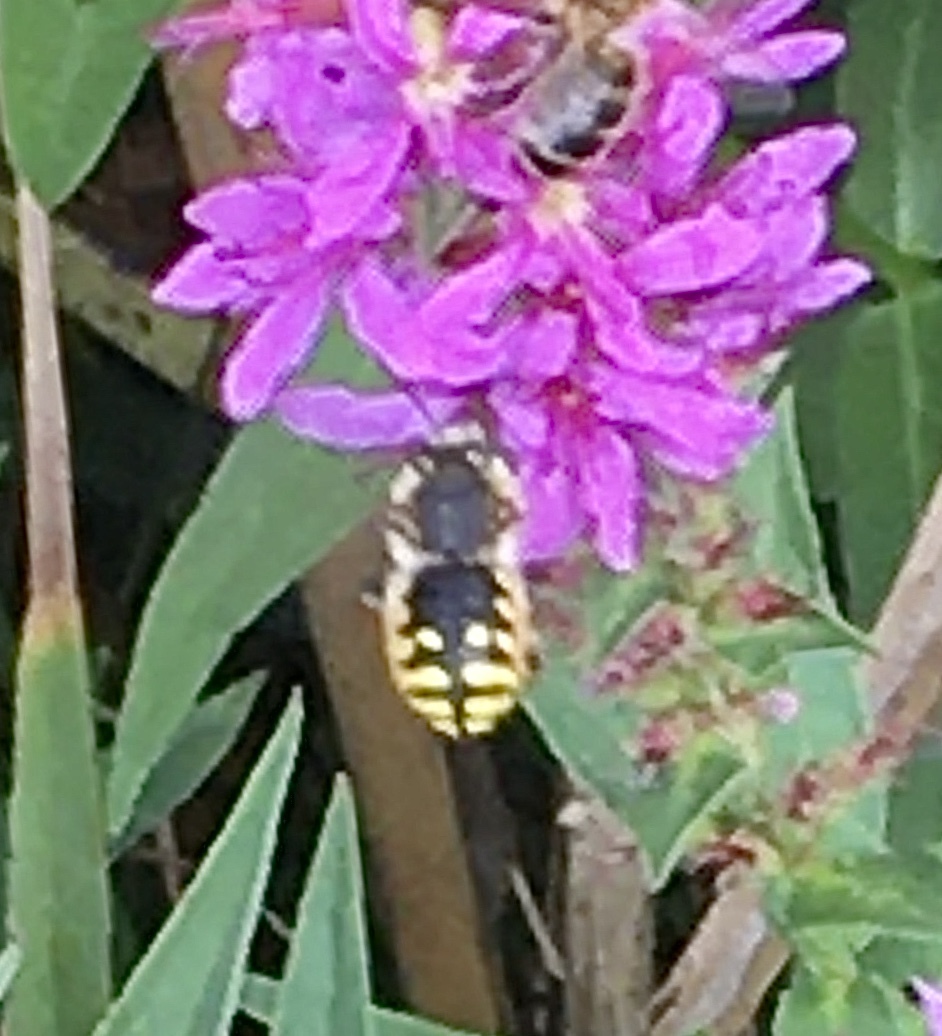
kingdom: Animalia
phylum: Arthropoda
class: Insecta
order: Hymenoptera
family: Megachilidae
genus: Anthidium
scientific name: Anthidium manicatum
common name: Wool carder bee
